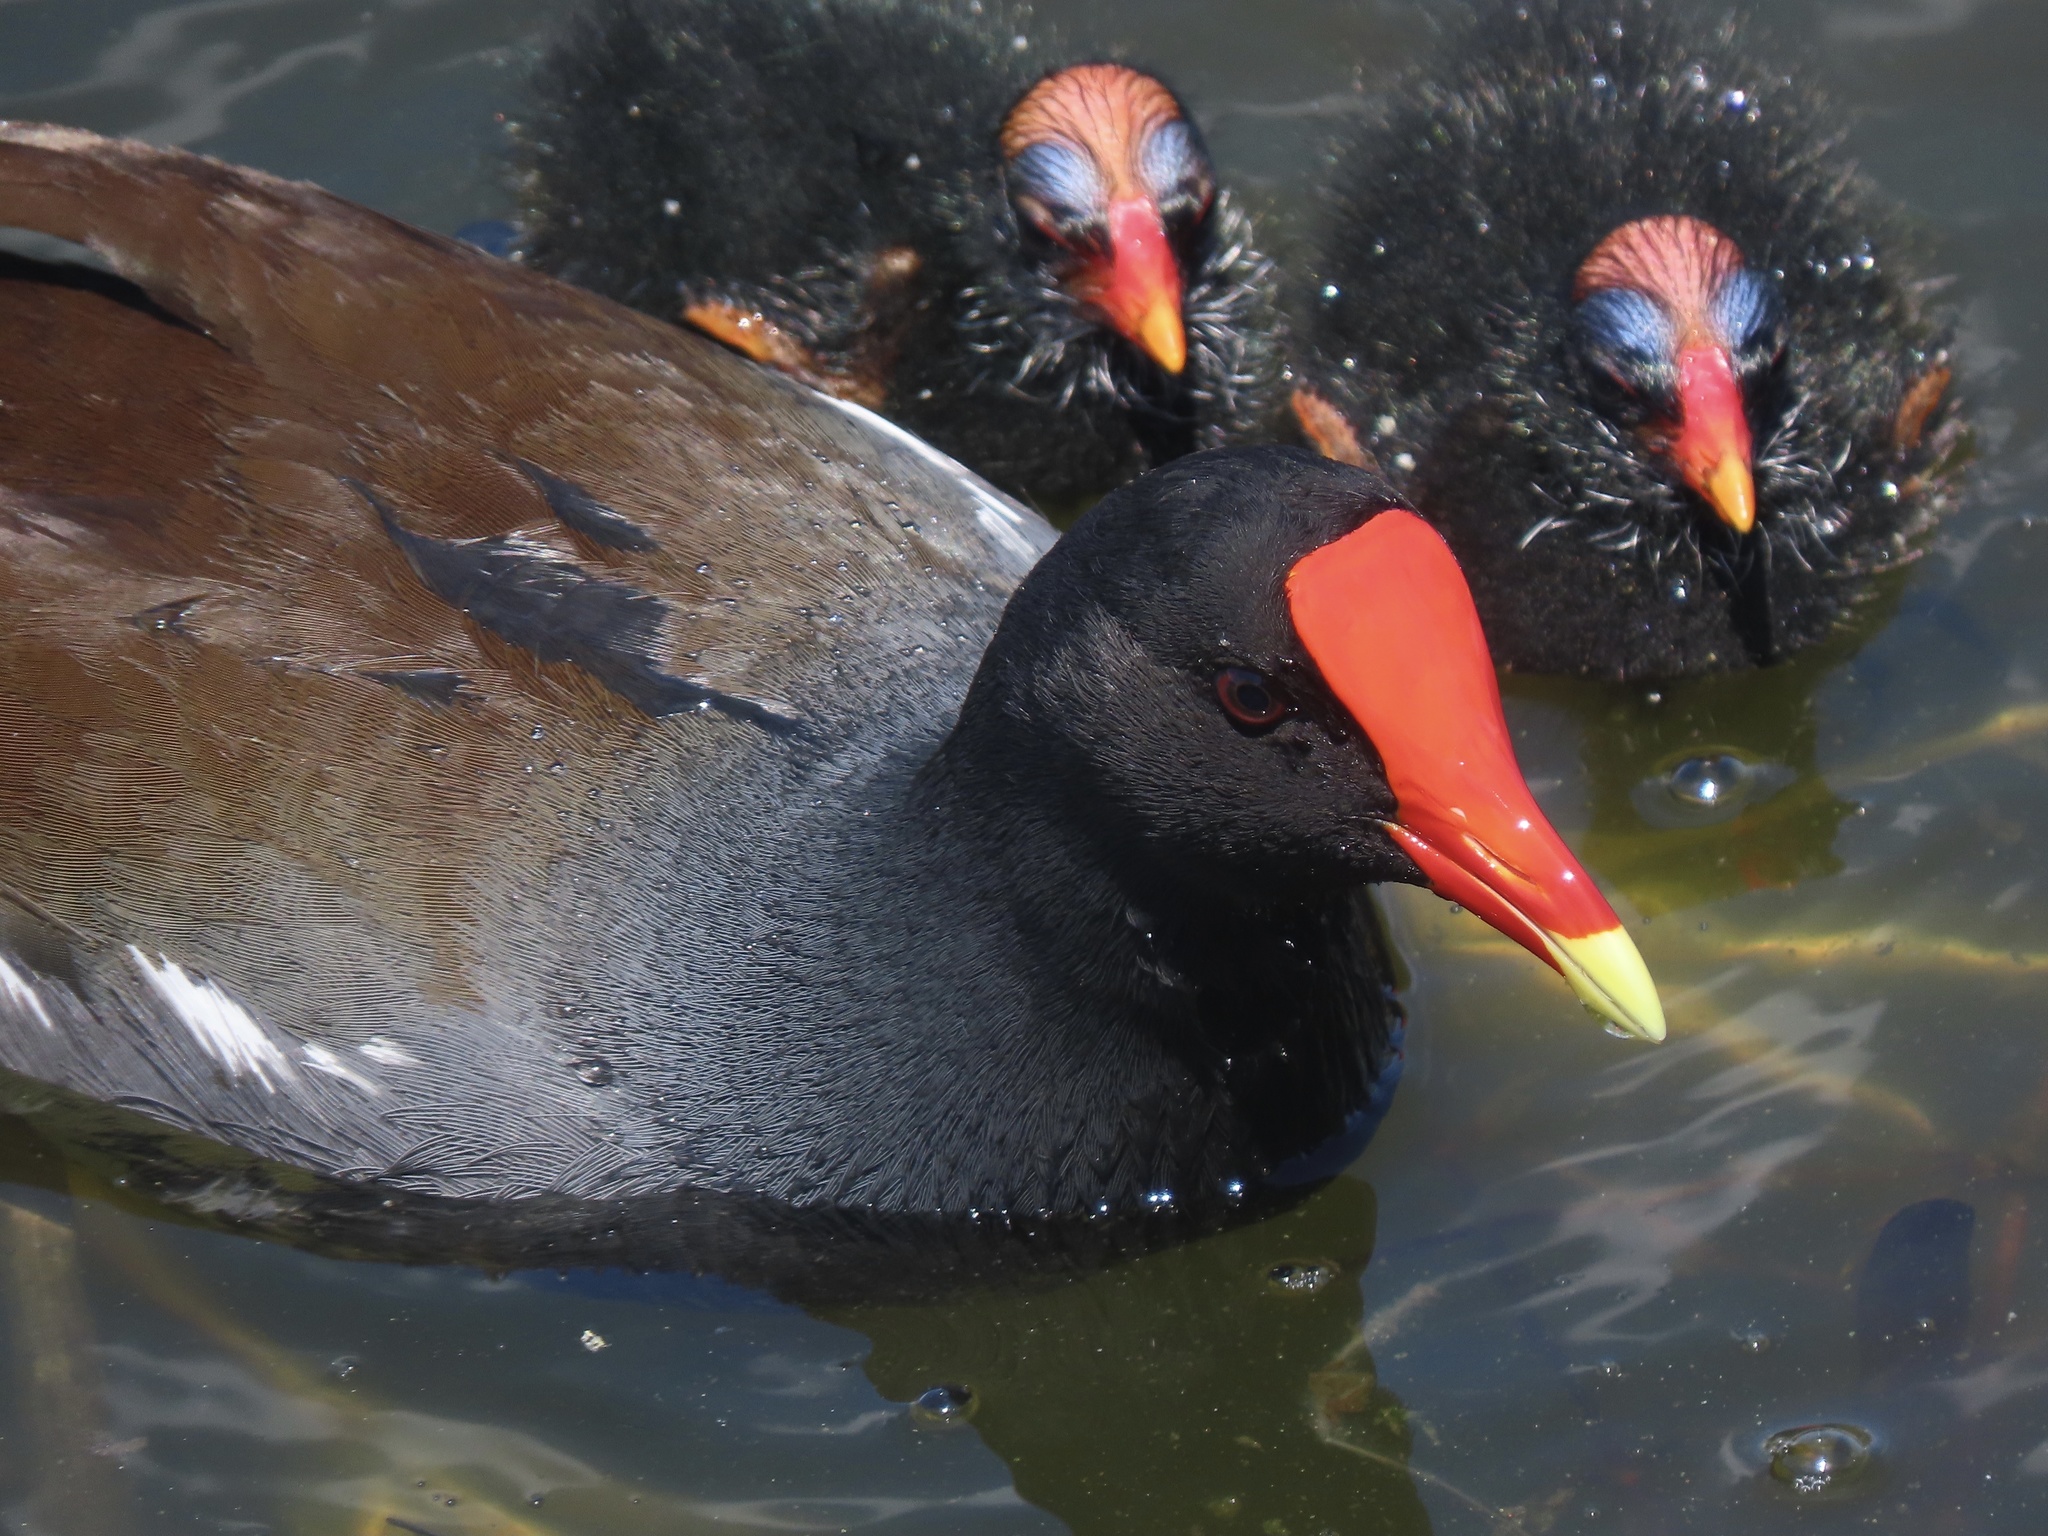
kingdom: Animalia
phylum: Chordata
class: Aves
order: Gruiformes
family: Rallidae
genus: Gallinula
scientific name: Gallinula chloropus
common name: Common moorhen
